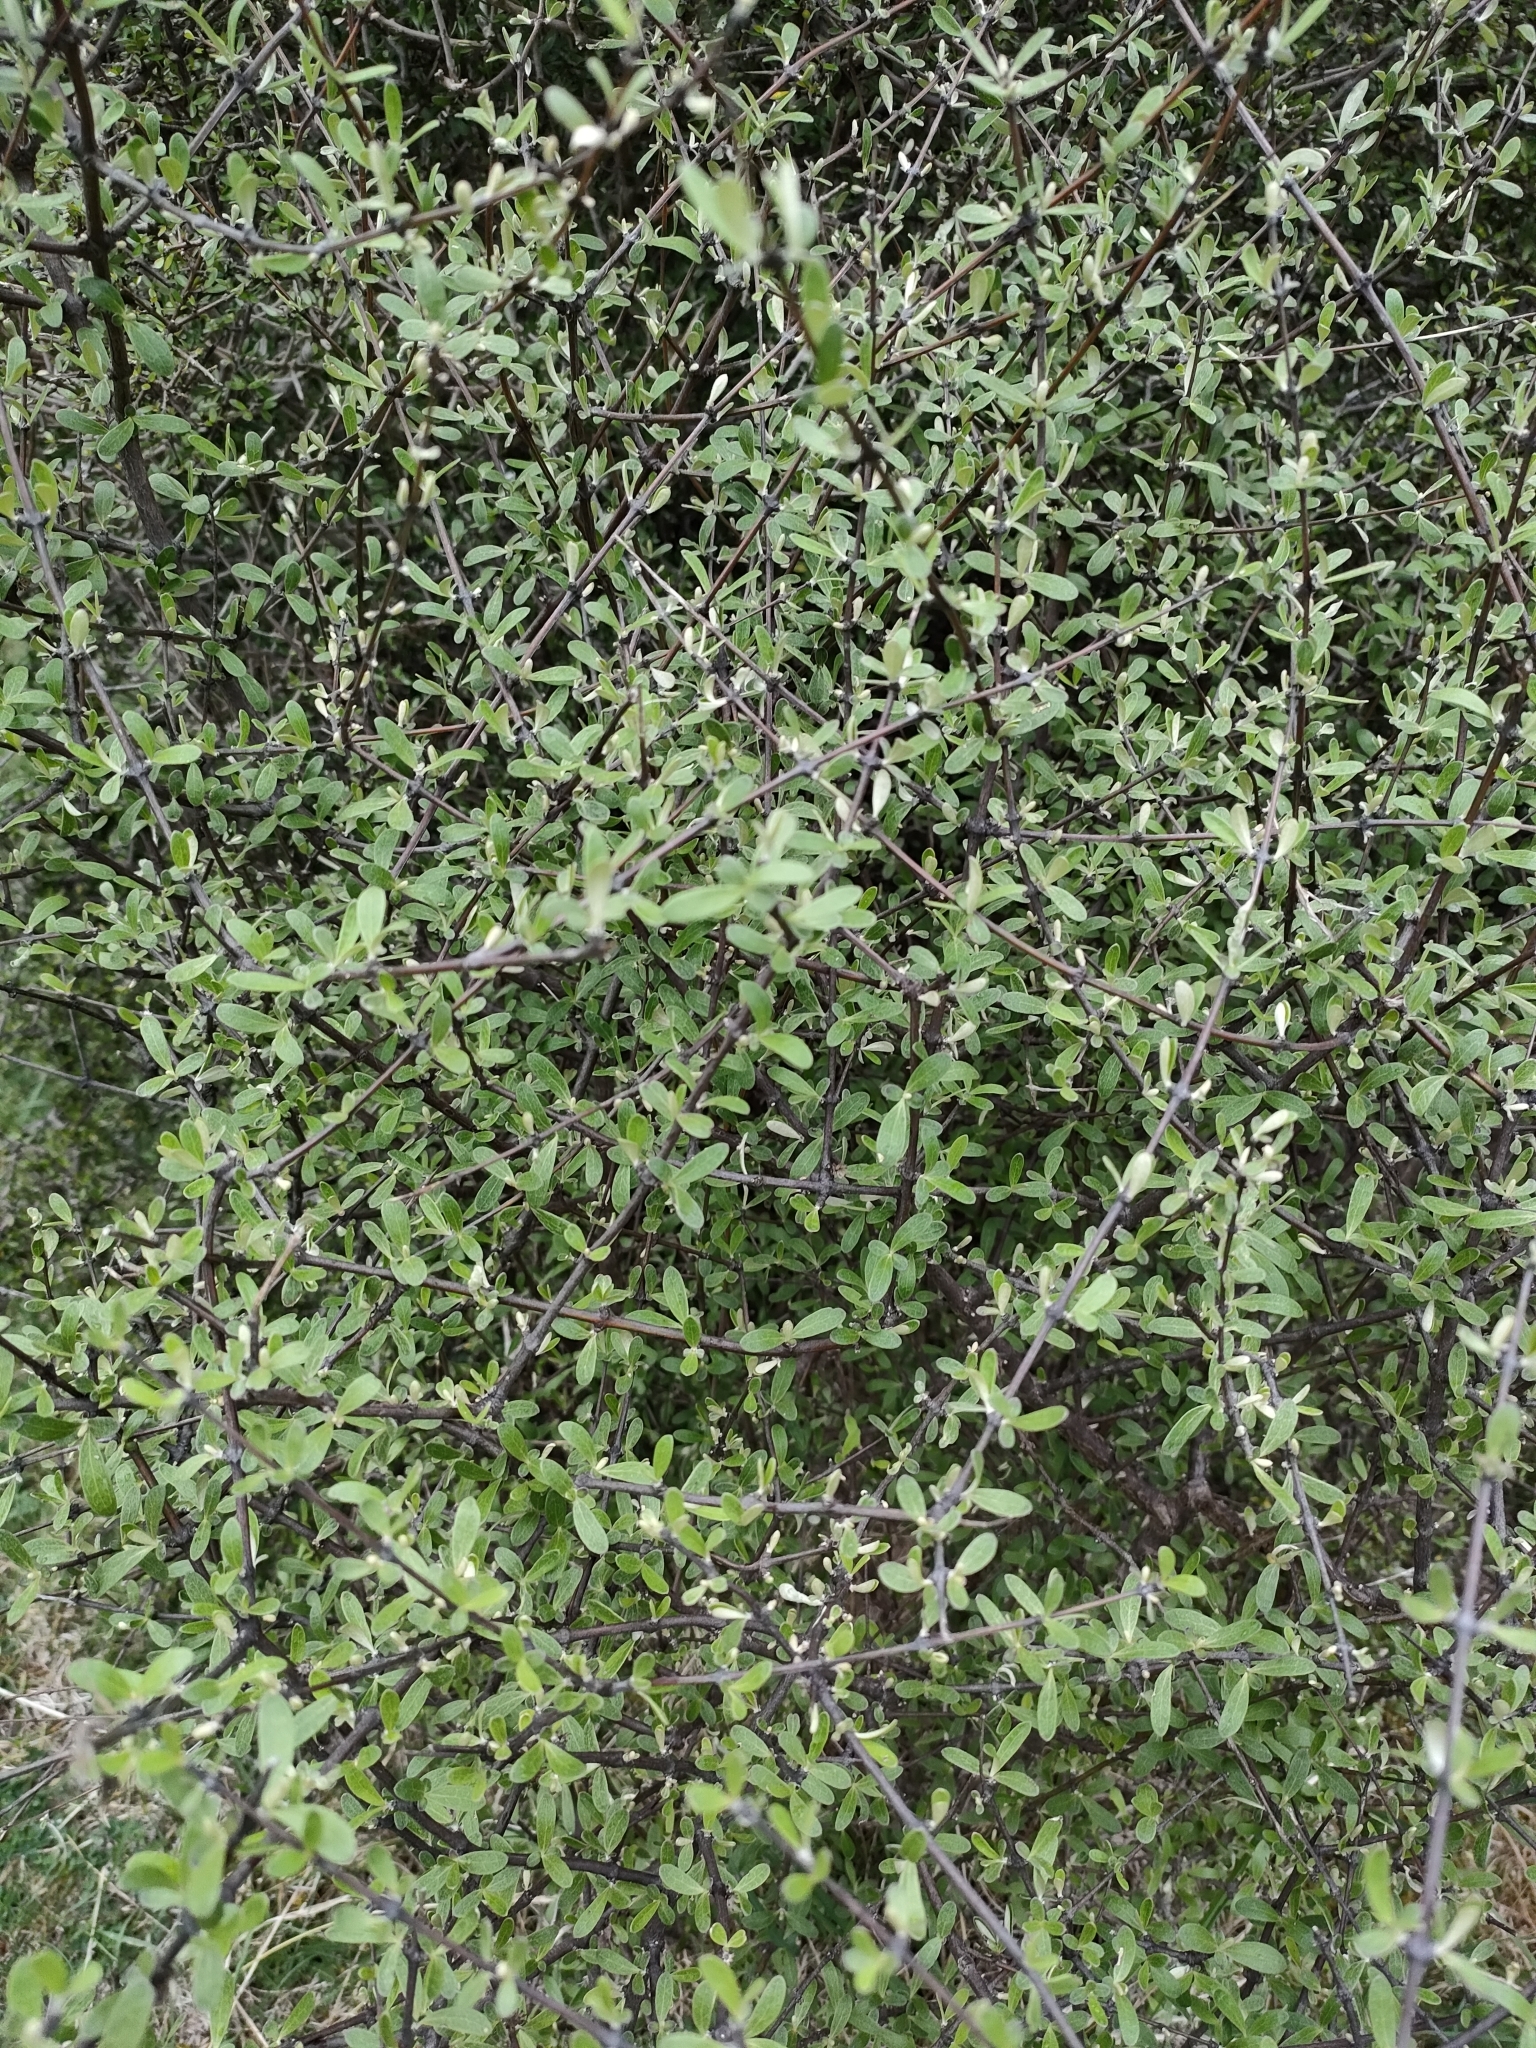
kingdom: Plantae
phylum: Tracheophyta
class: Magnoliopsida
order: Asterales
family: Asteraceae
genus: Olearia
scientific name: Olearia odorata
